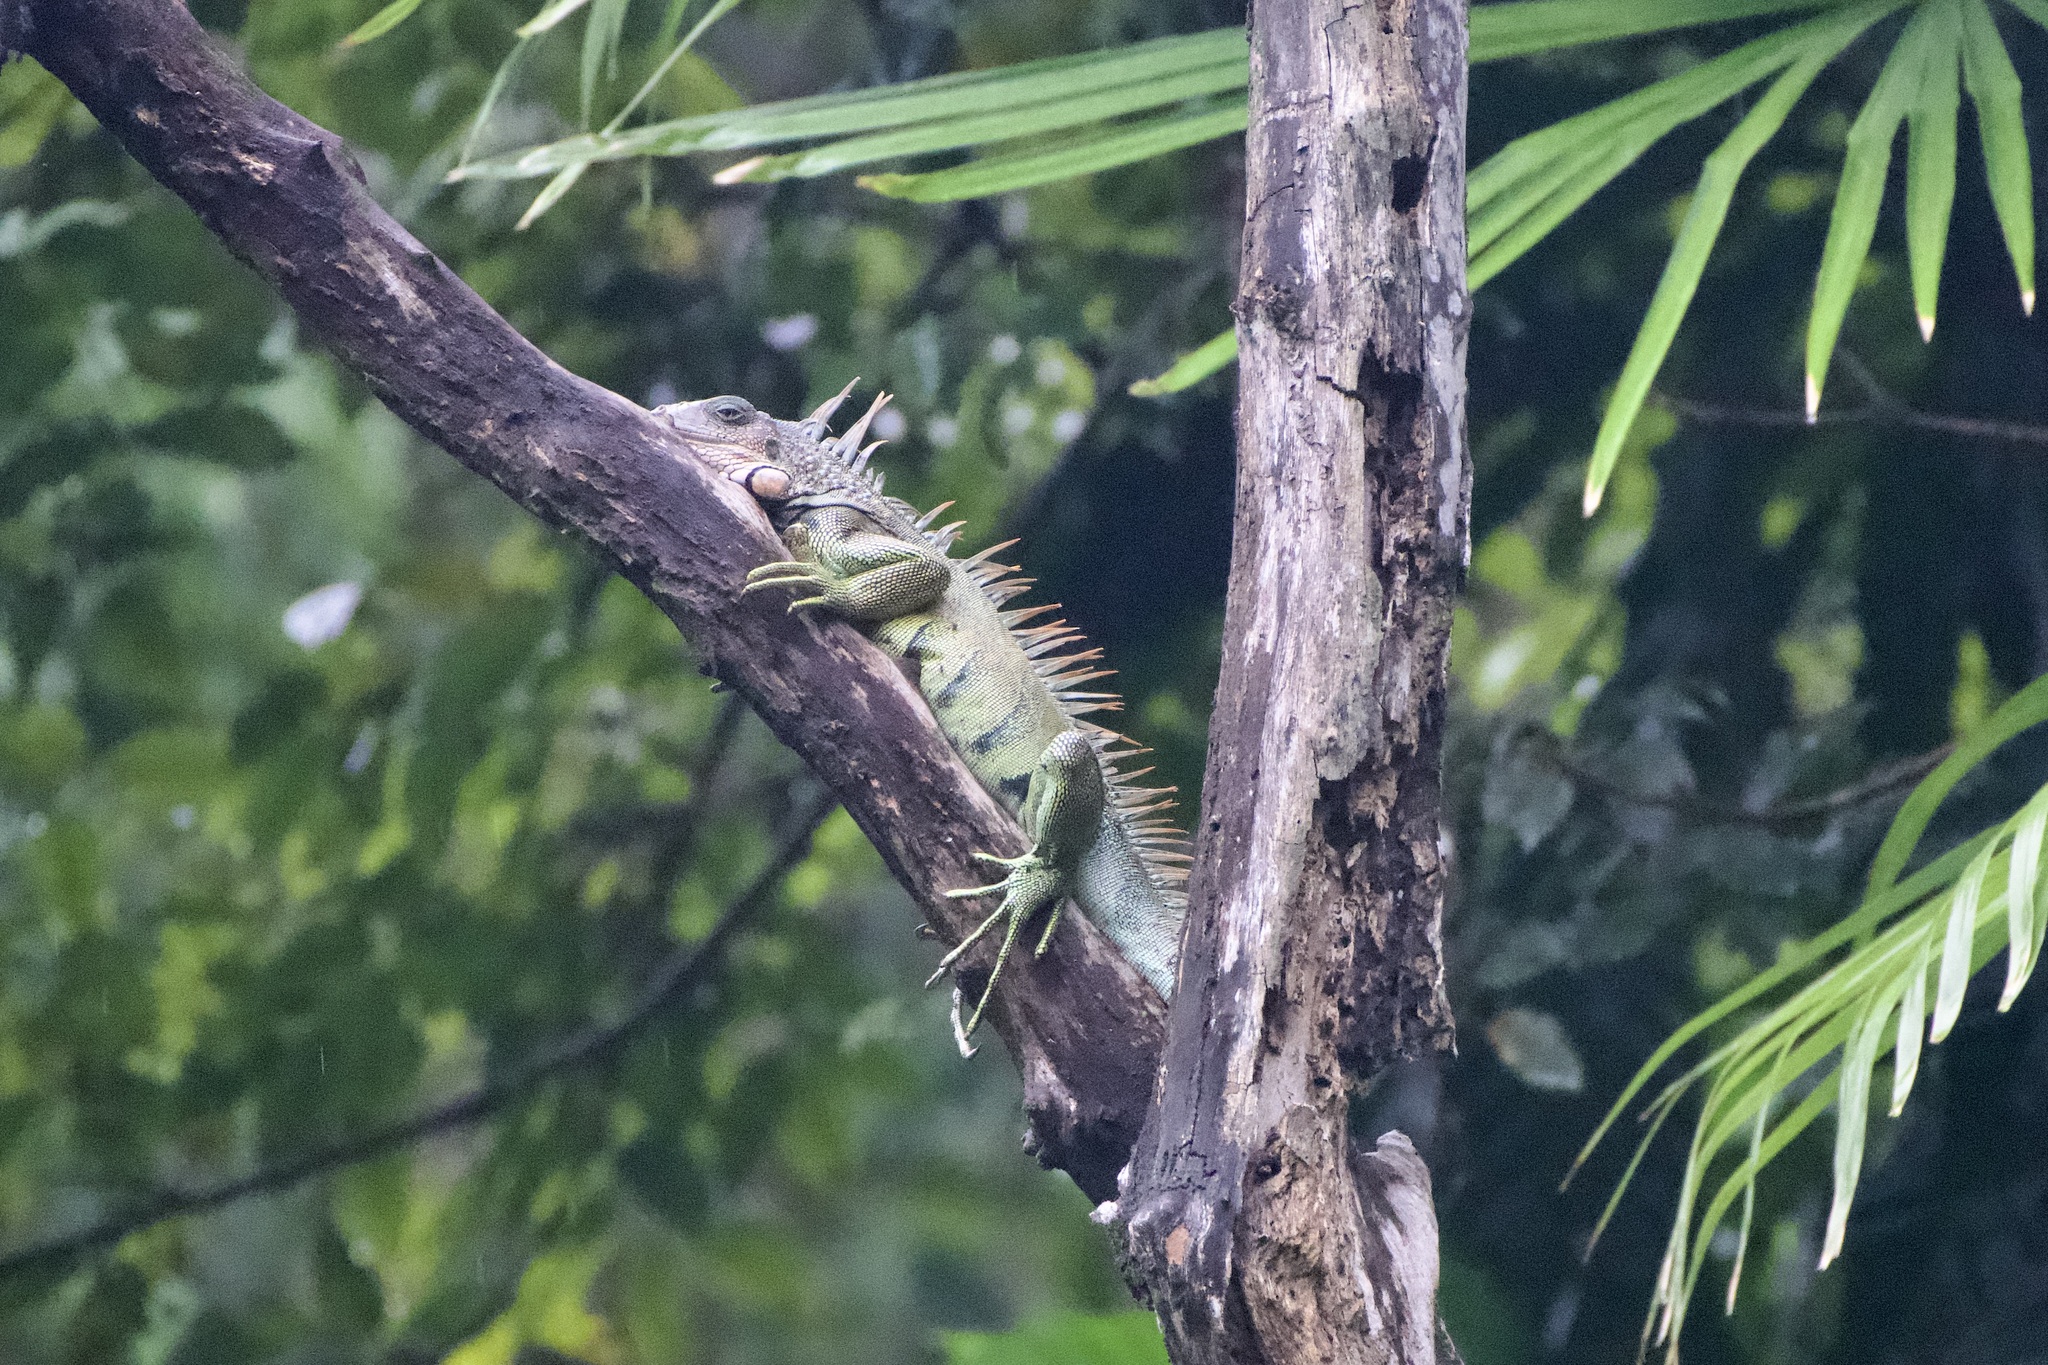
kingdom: Animalia
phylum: Chordata
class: Squamata
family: Iguanidae
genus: Iguana
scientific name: Iguana iguana
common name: Green iguana
